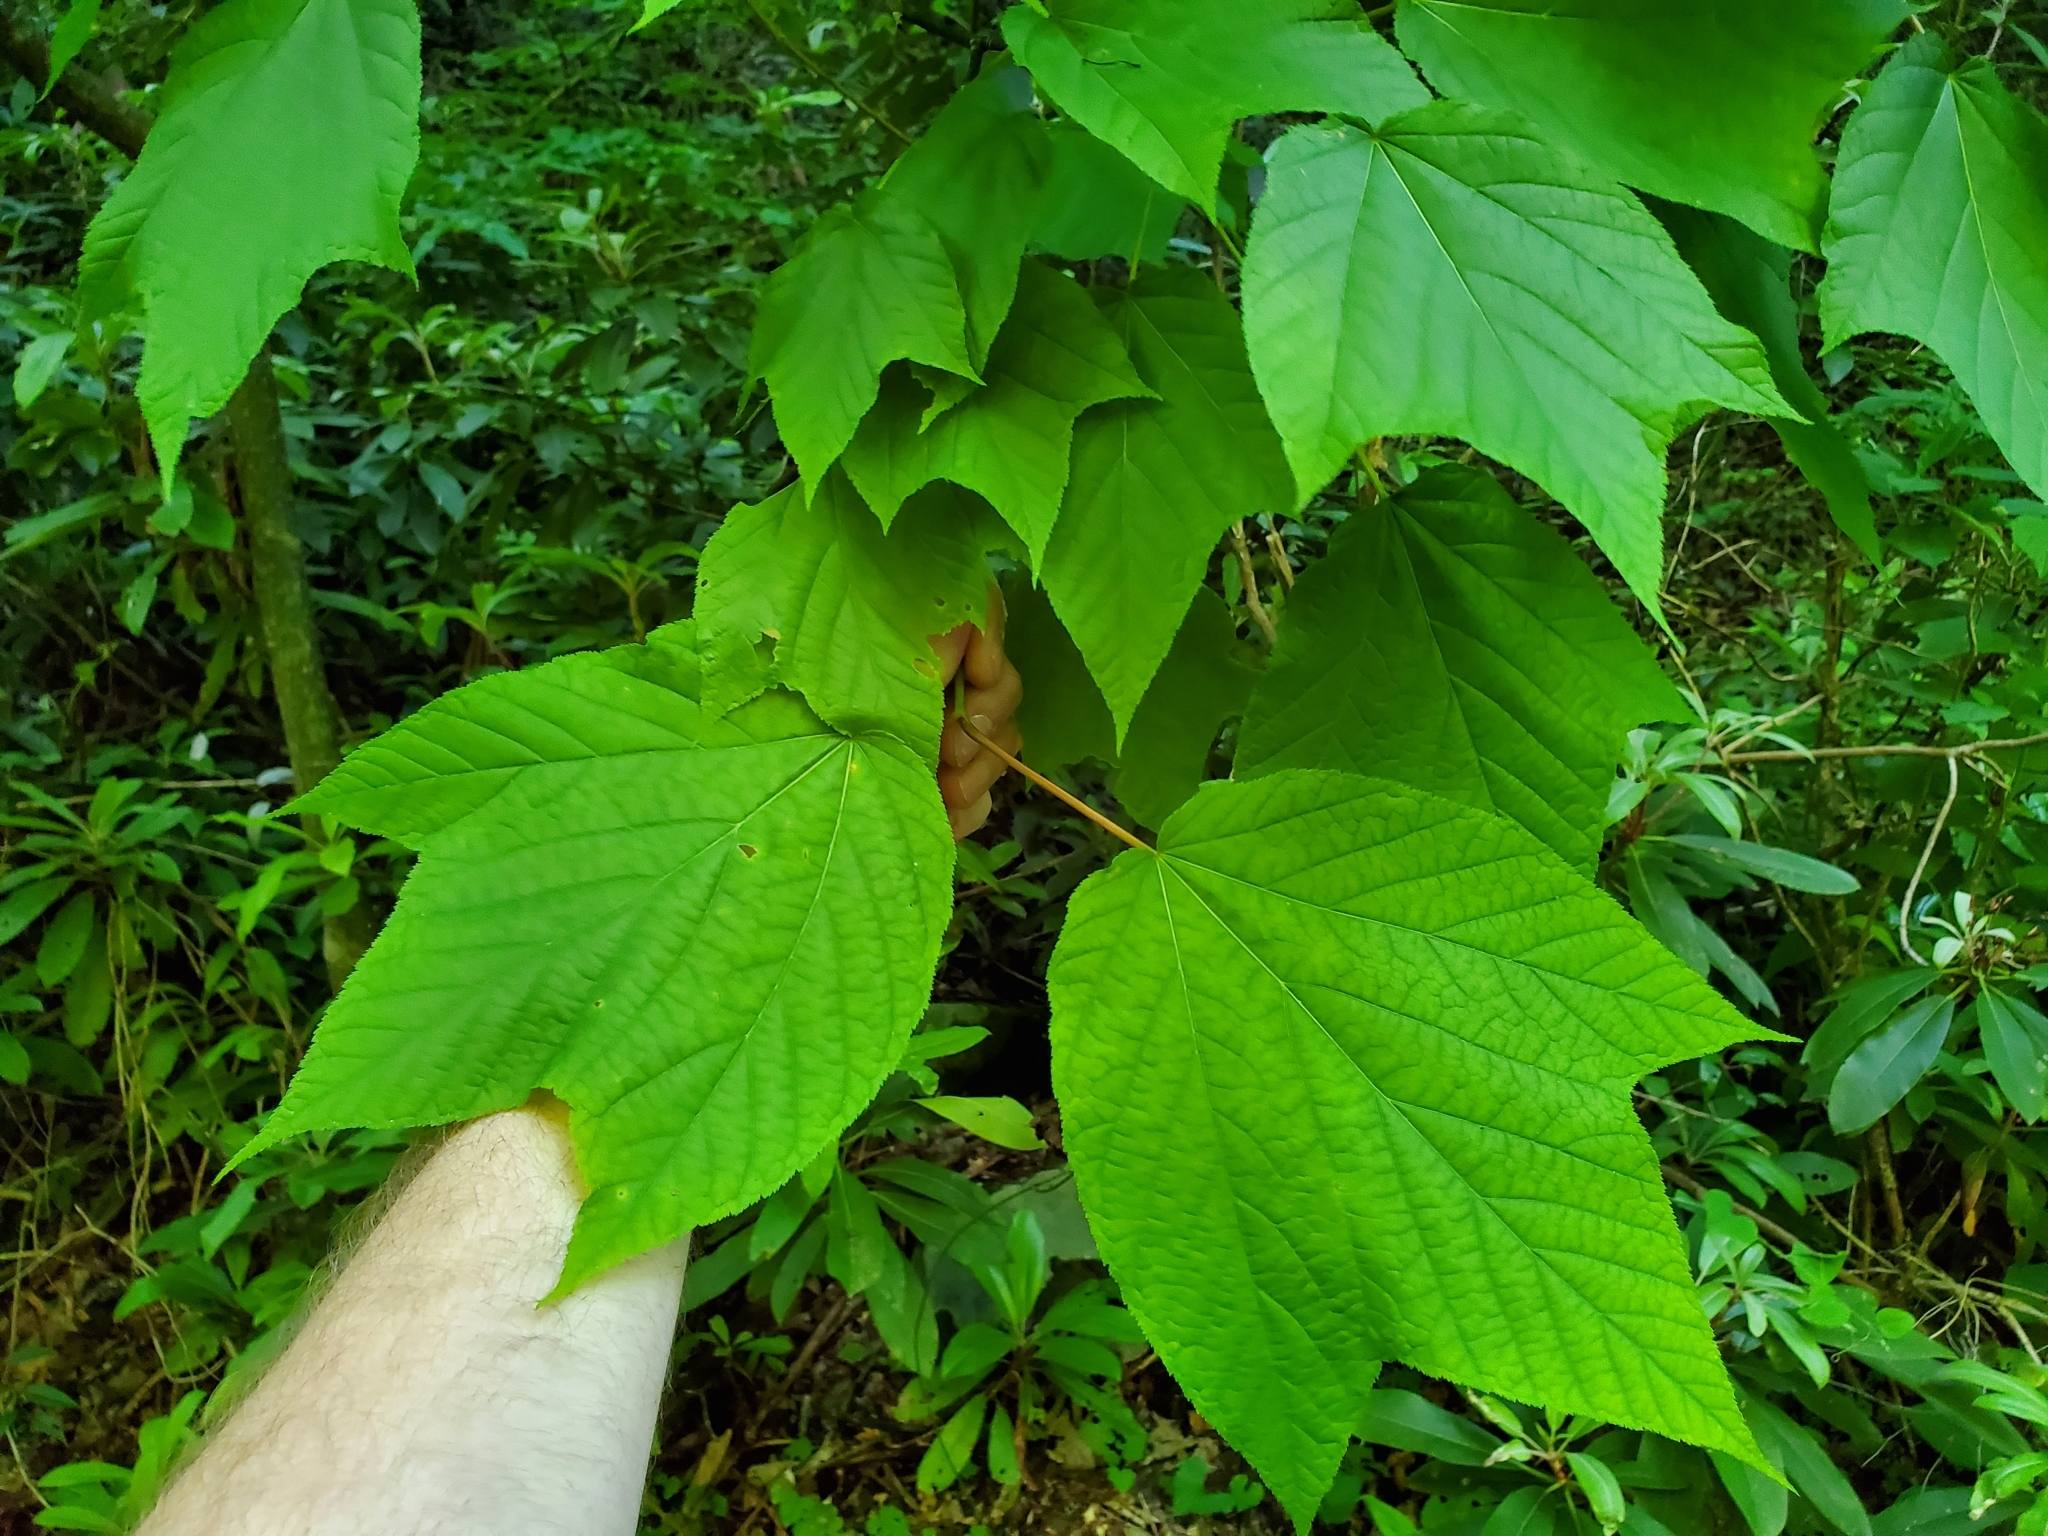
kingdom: Plantae
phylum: Tracheophyta
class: Magnoliopsida
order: Sapindales
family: Sapindaceae
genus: Acer
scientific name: Acer pensylvanicum
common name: Moosewood
